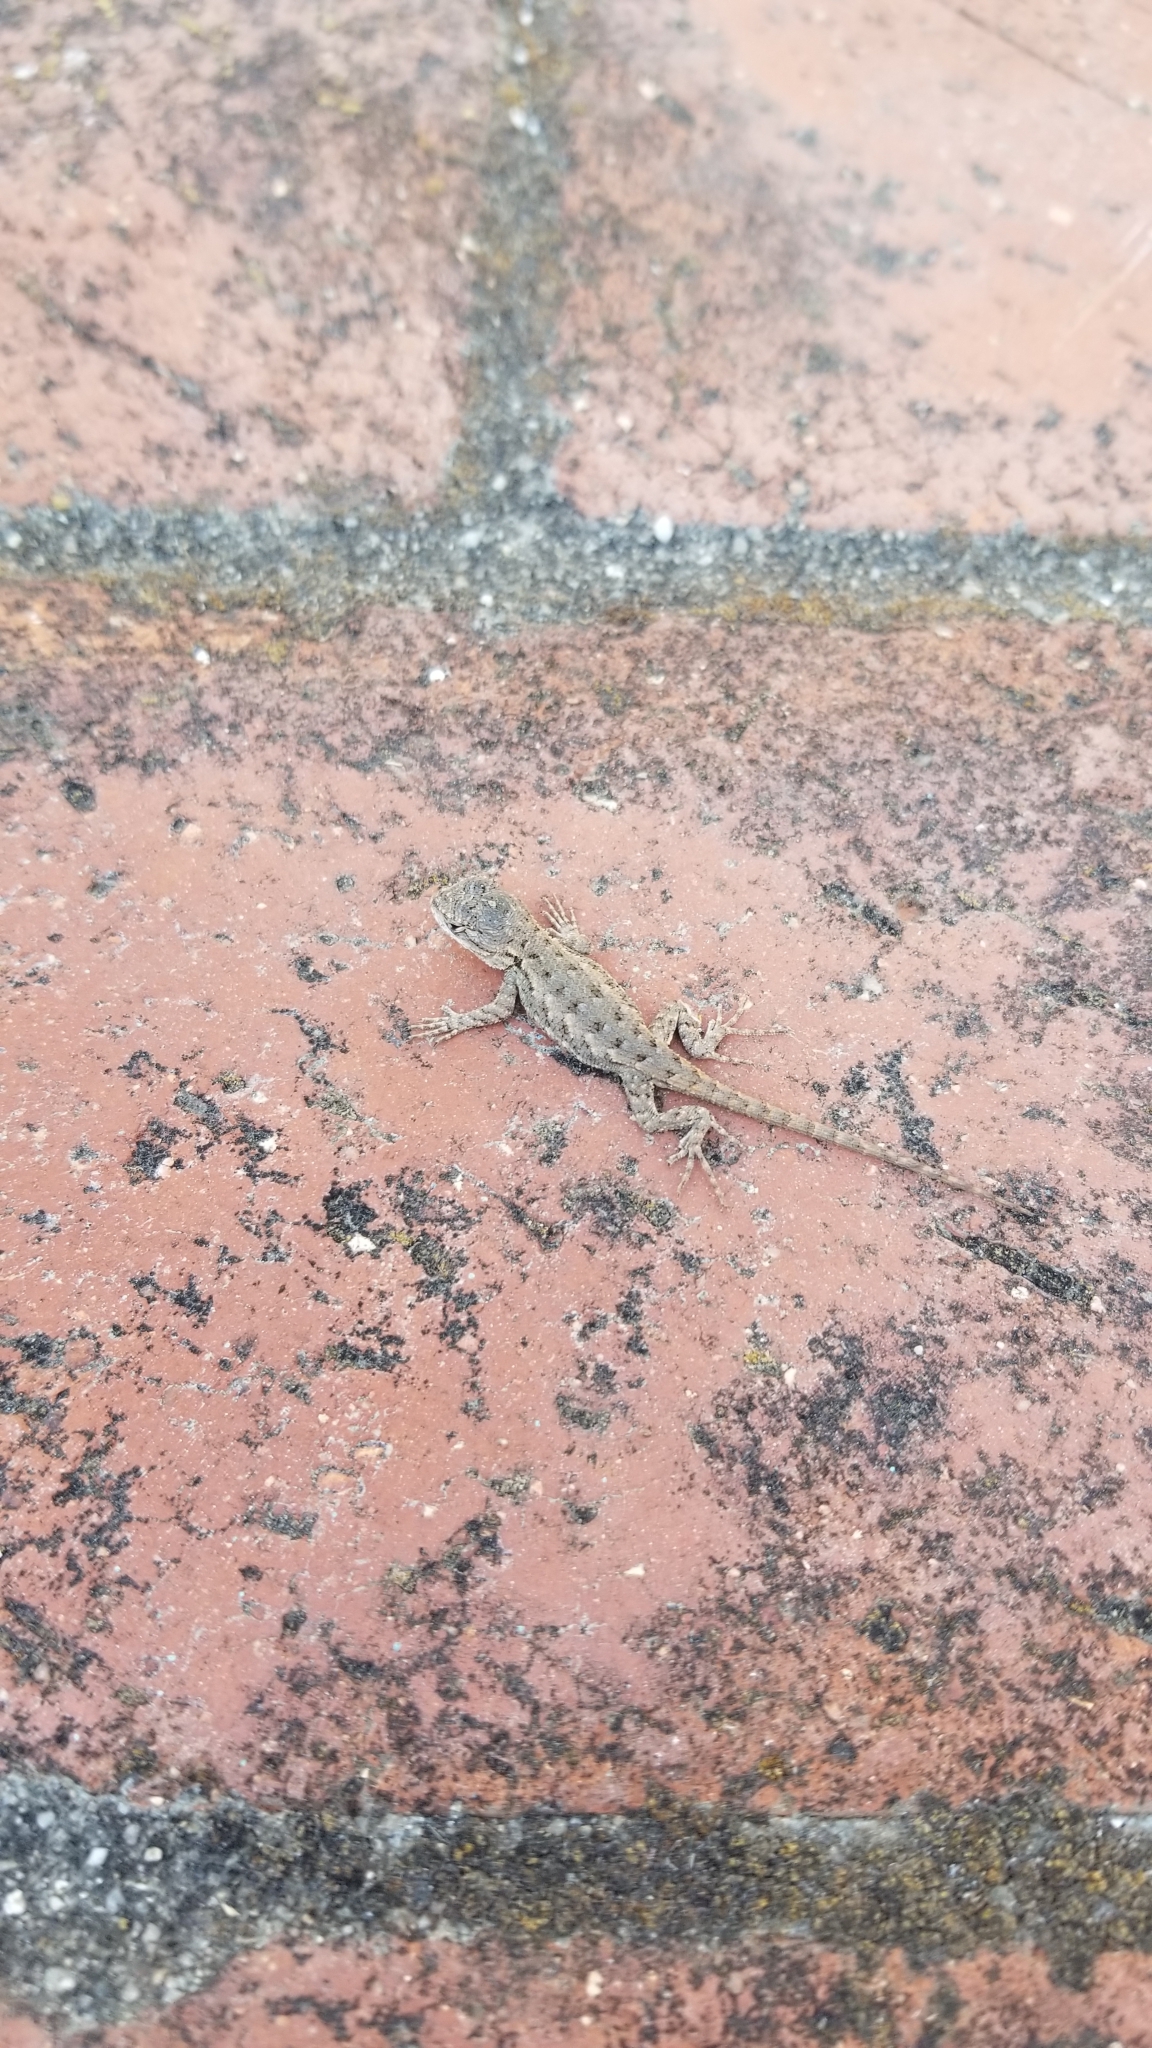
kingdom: Animalia
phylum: Chordata
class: Squamata
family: Phrynosomatidae
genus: Sceloporus
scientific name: Sceloporus occidentalis
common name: Western fence lizard
